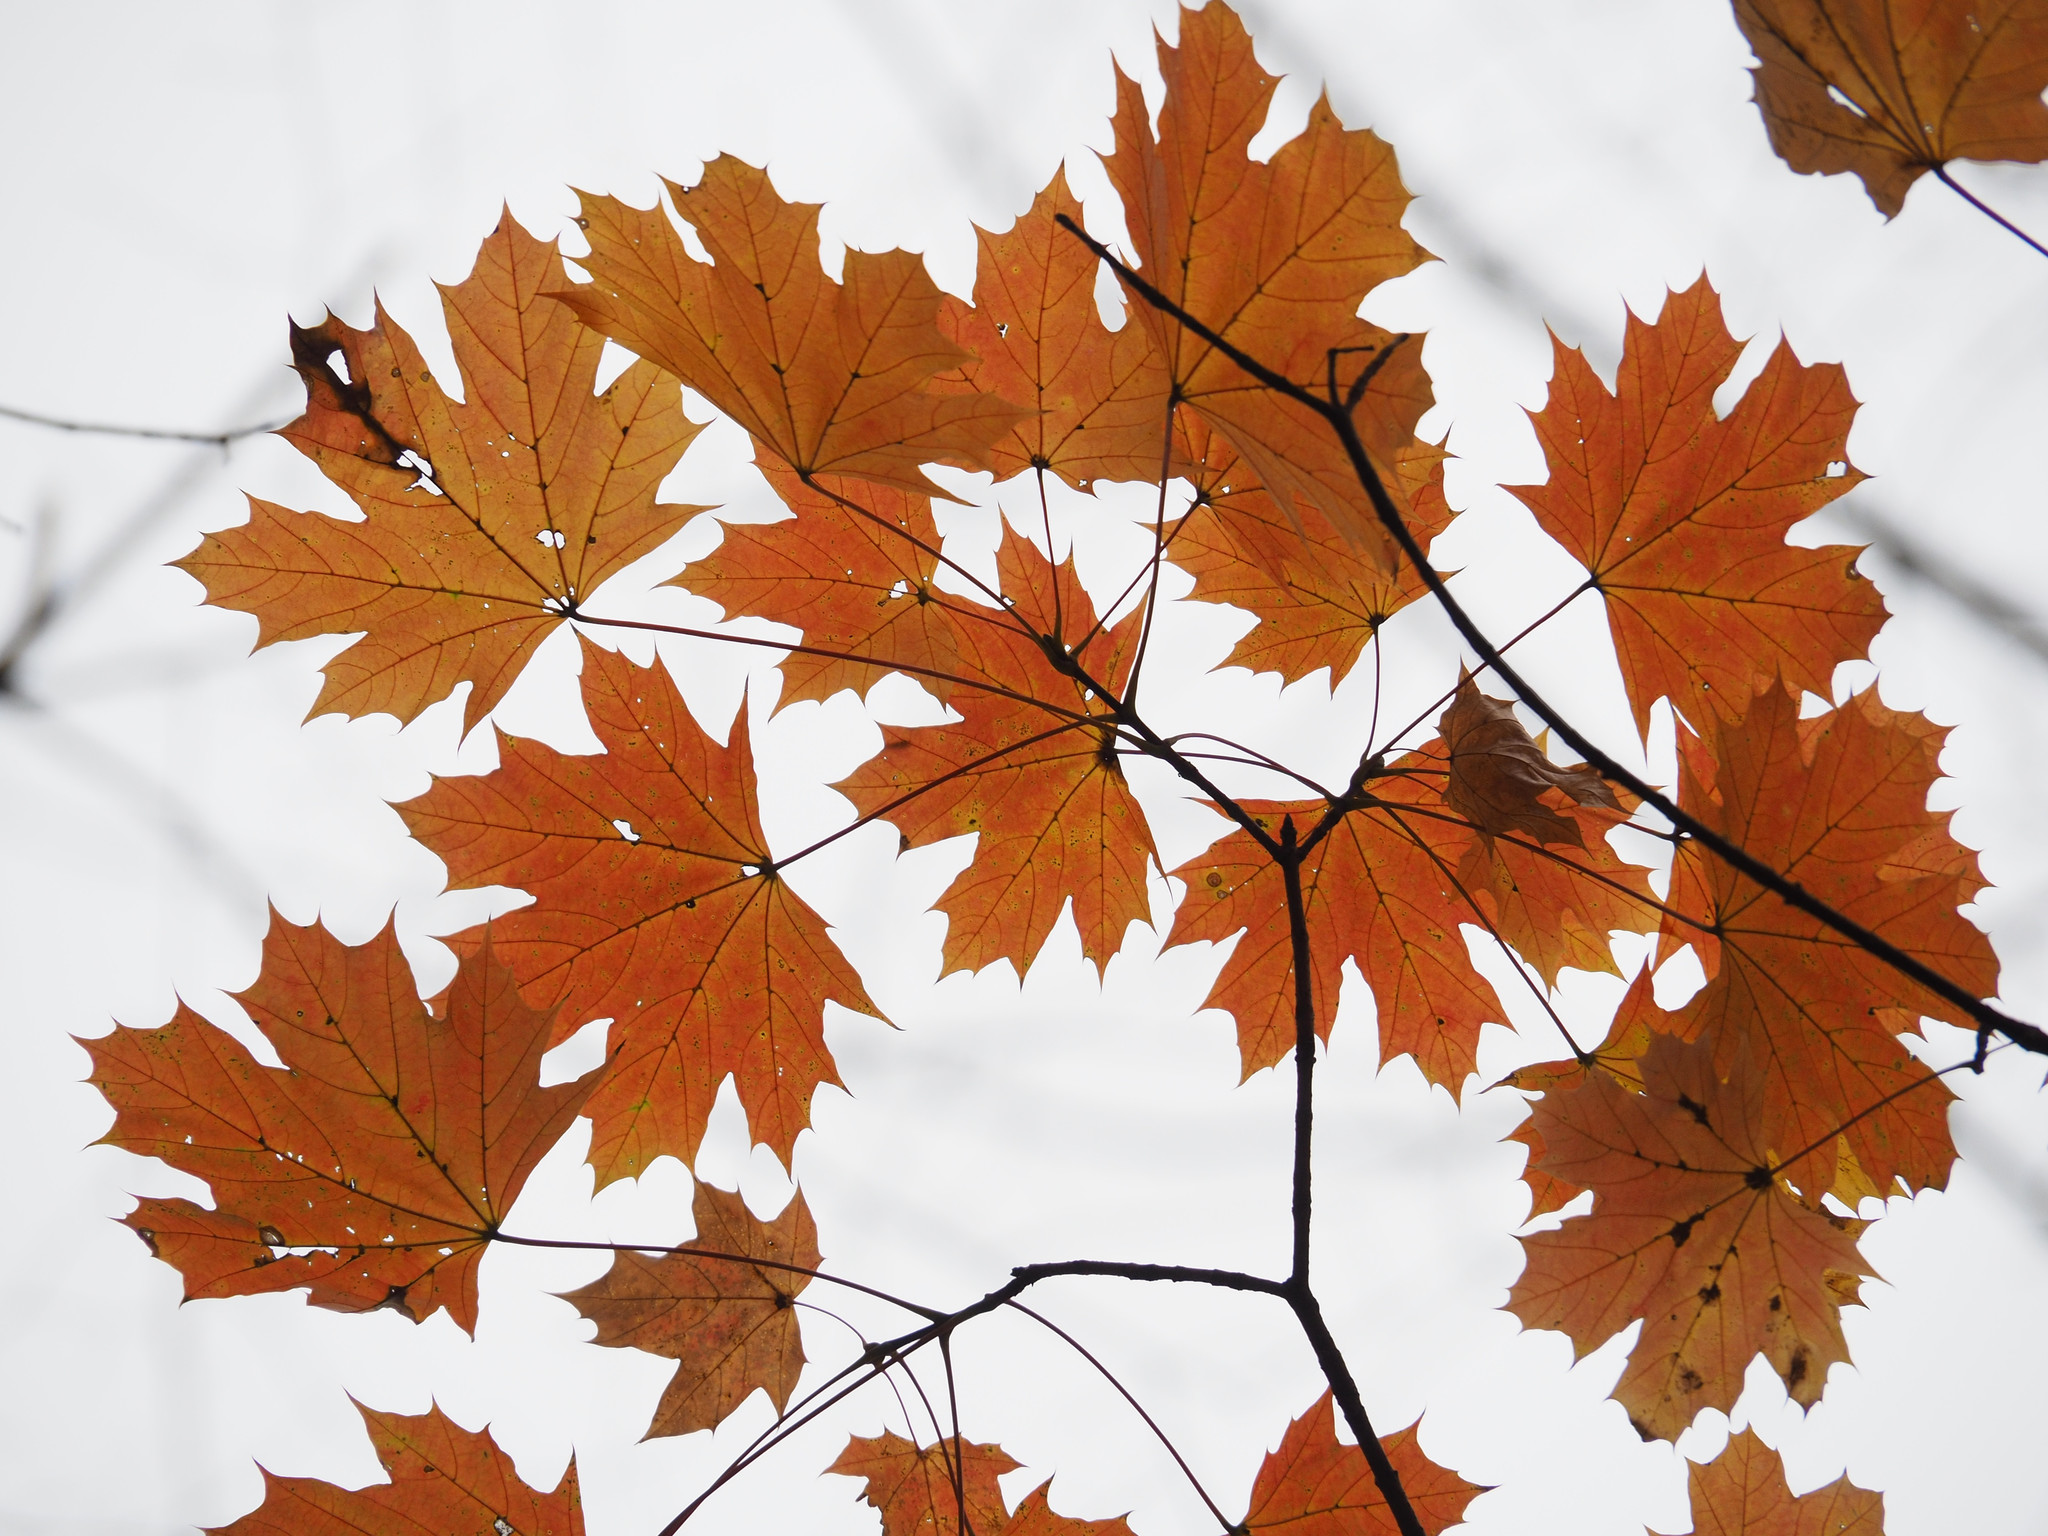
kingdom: Plantae
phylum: Tracheophyta
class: Magnoliopsida
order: Sapindales
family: Sapindaceae
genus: Acer
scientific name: Acer platanoides
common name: Norway maple
